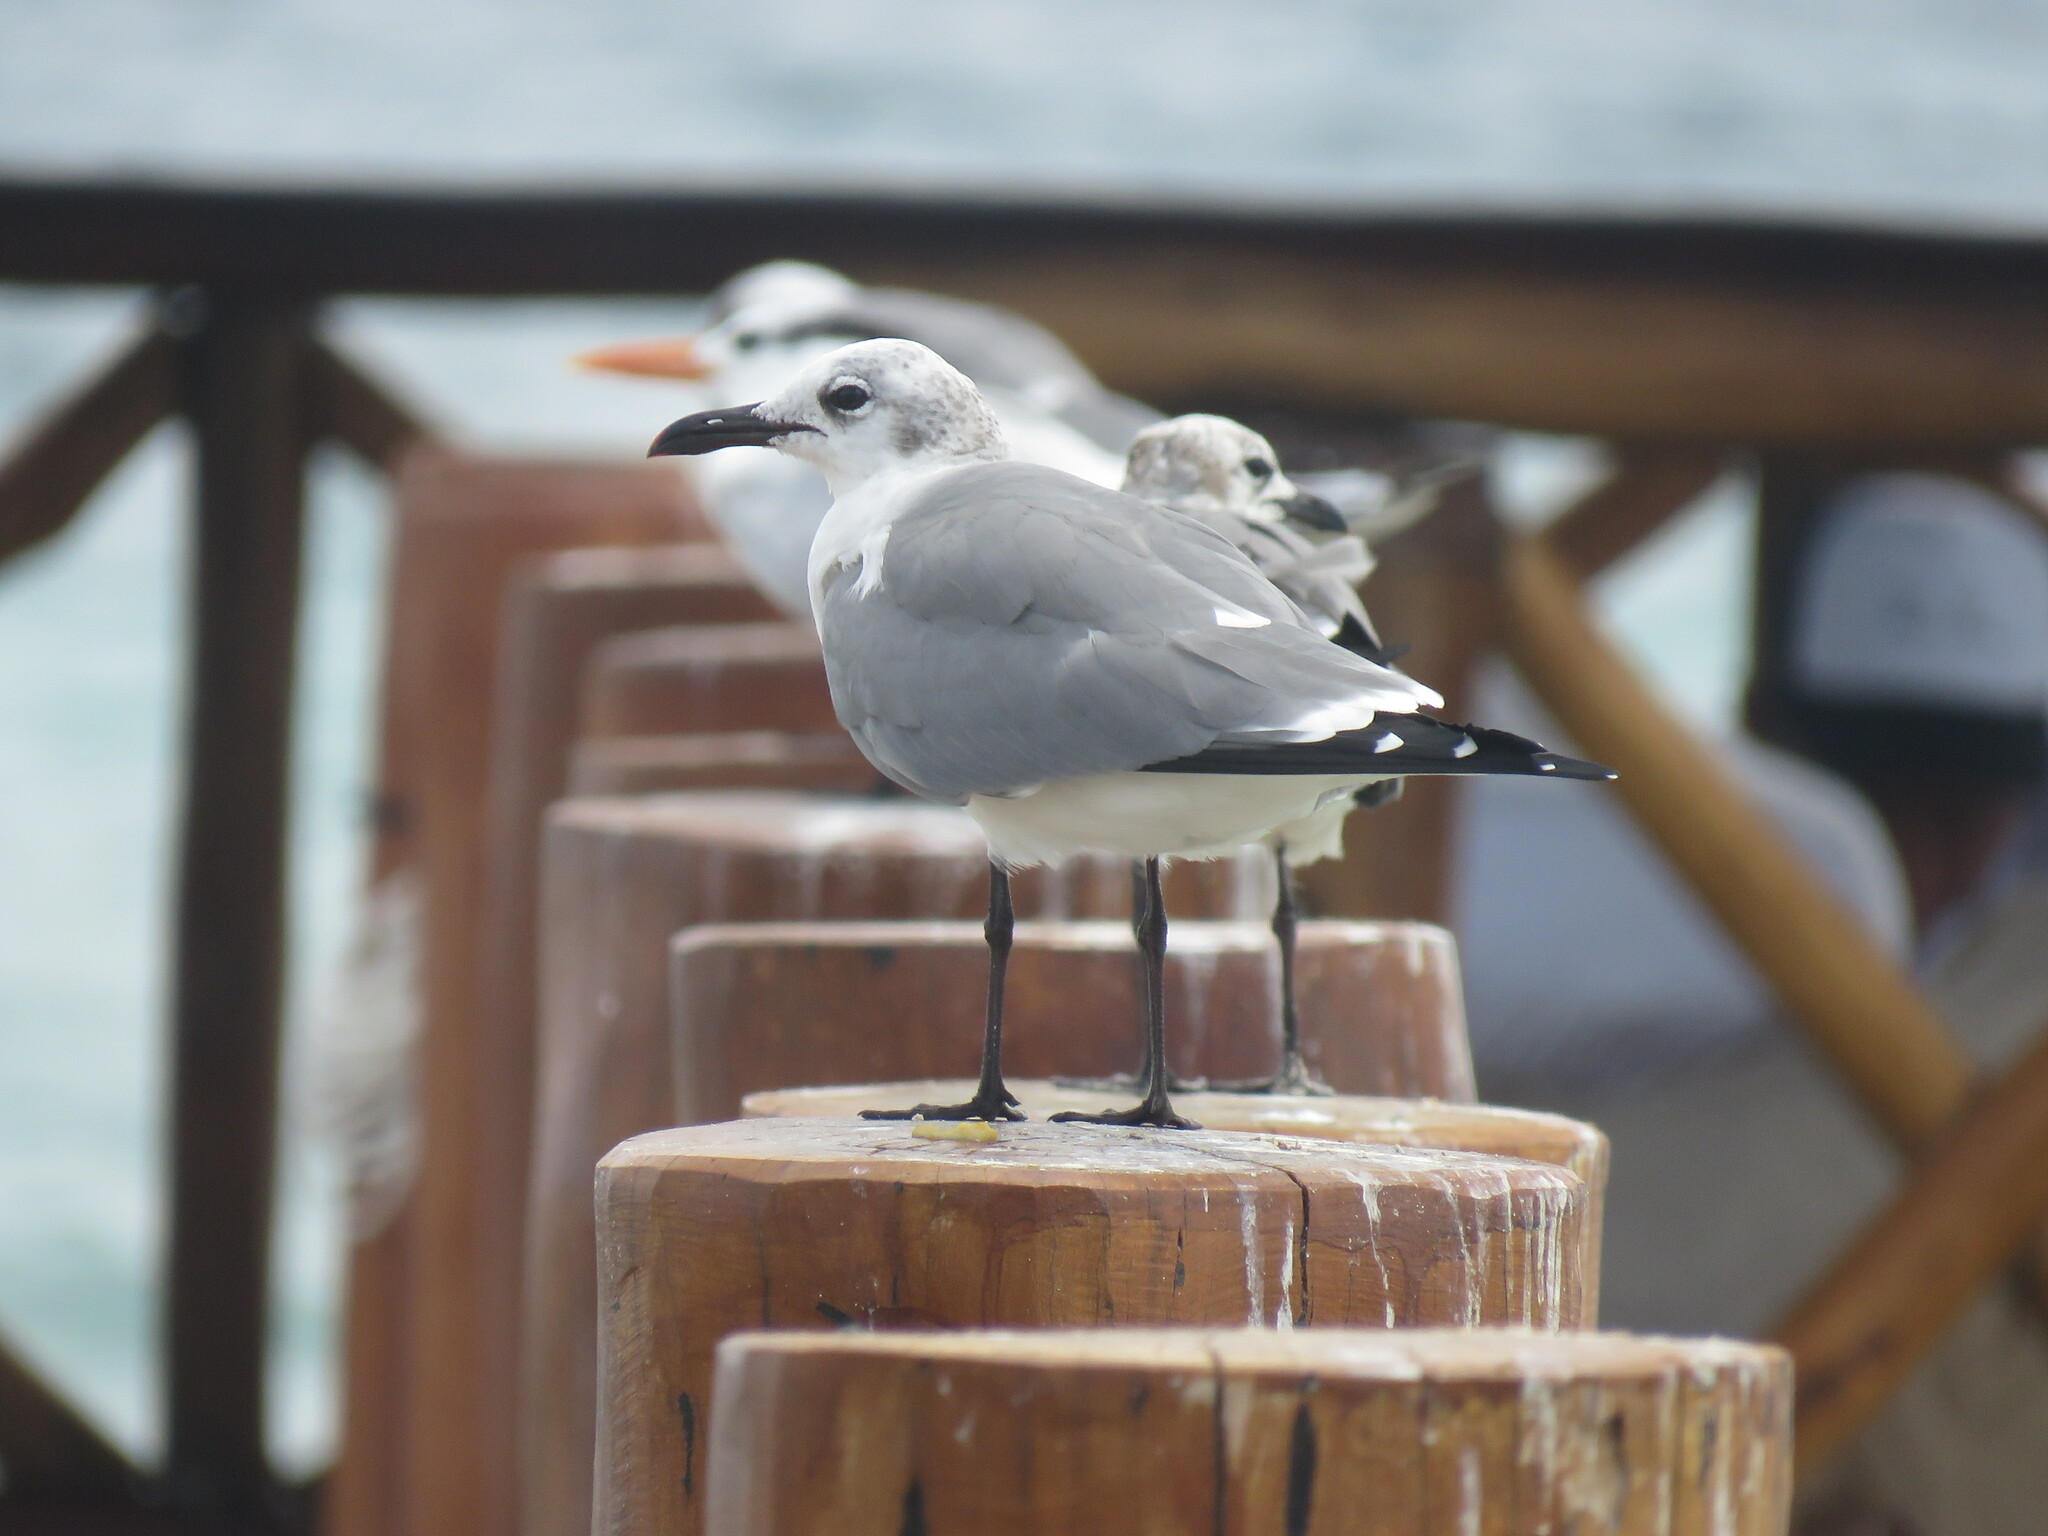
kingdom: Animalia
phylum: Chordata
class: Aves
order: Charadriiformes
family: Laridae
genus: Leucophaeus
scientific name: Leucophaeus atricilla
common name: Laughing gull
